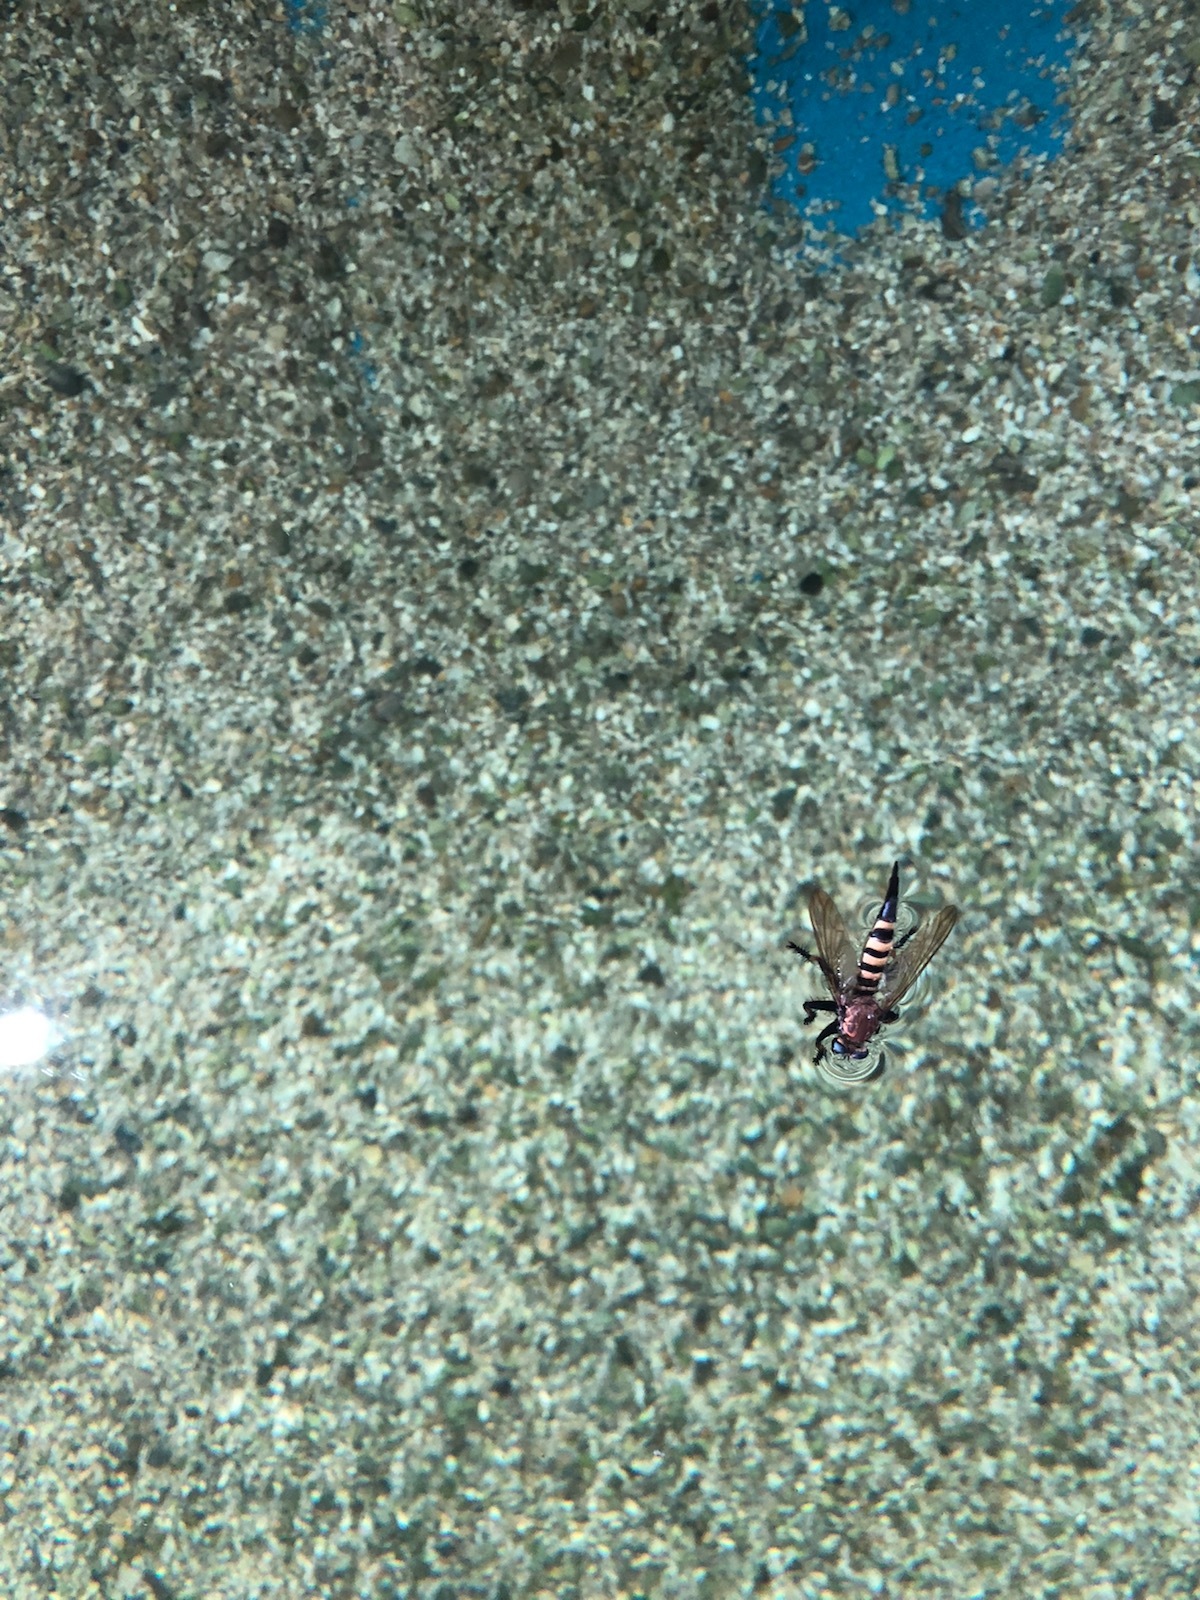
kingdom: Animalia
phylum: Arthropoda
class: Insecta
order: Diptera
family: Asilidae
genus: Promachus
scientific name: Promachus rufipes
